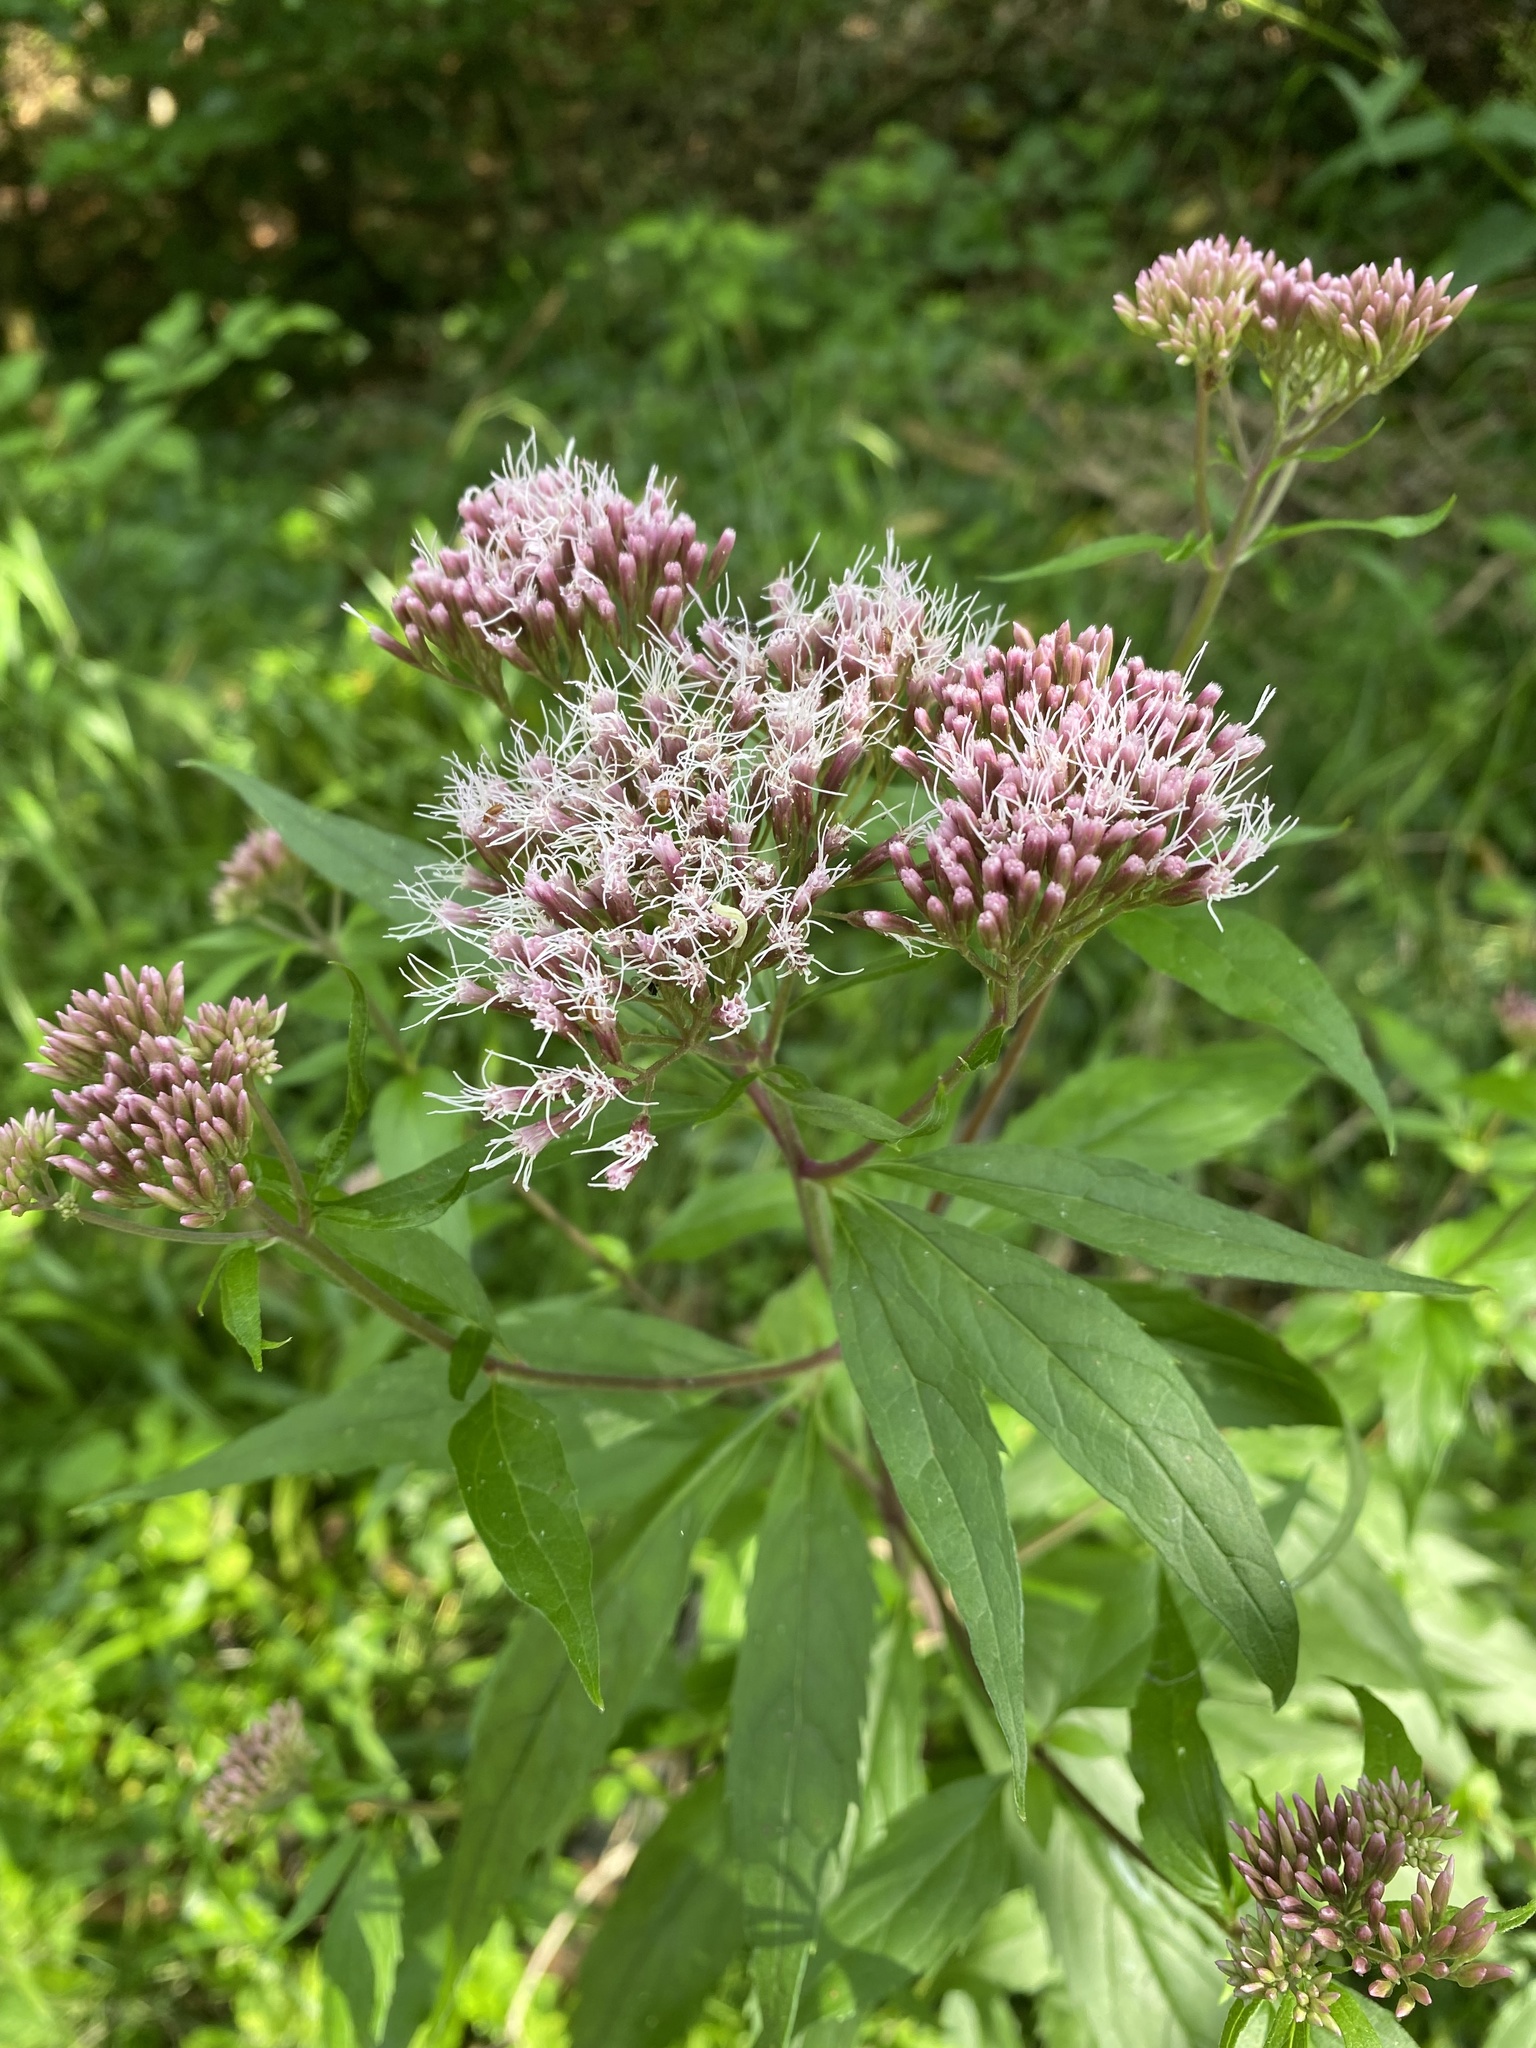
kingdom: Plantae
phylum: Tracheophyta
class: Magnoliopsida
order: Asterales
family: Asteraceae
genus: Eupatorium
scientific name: Eupatorium cannabinum
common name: Hemp-agrimony
